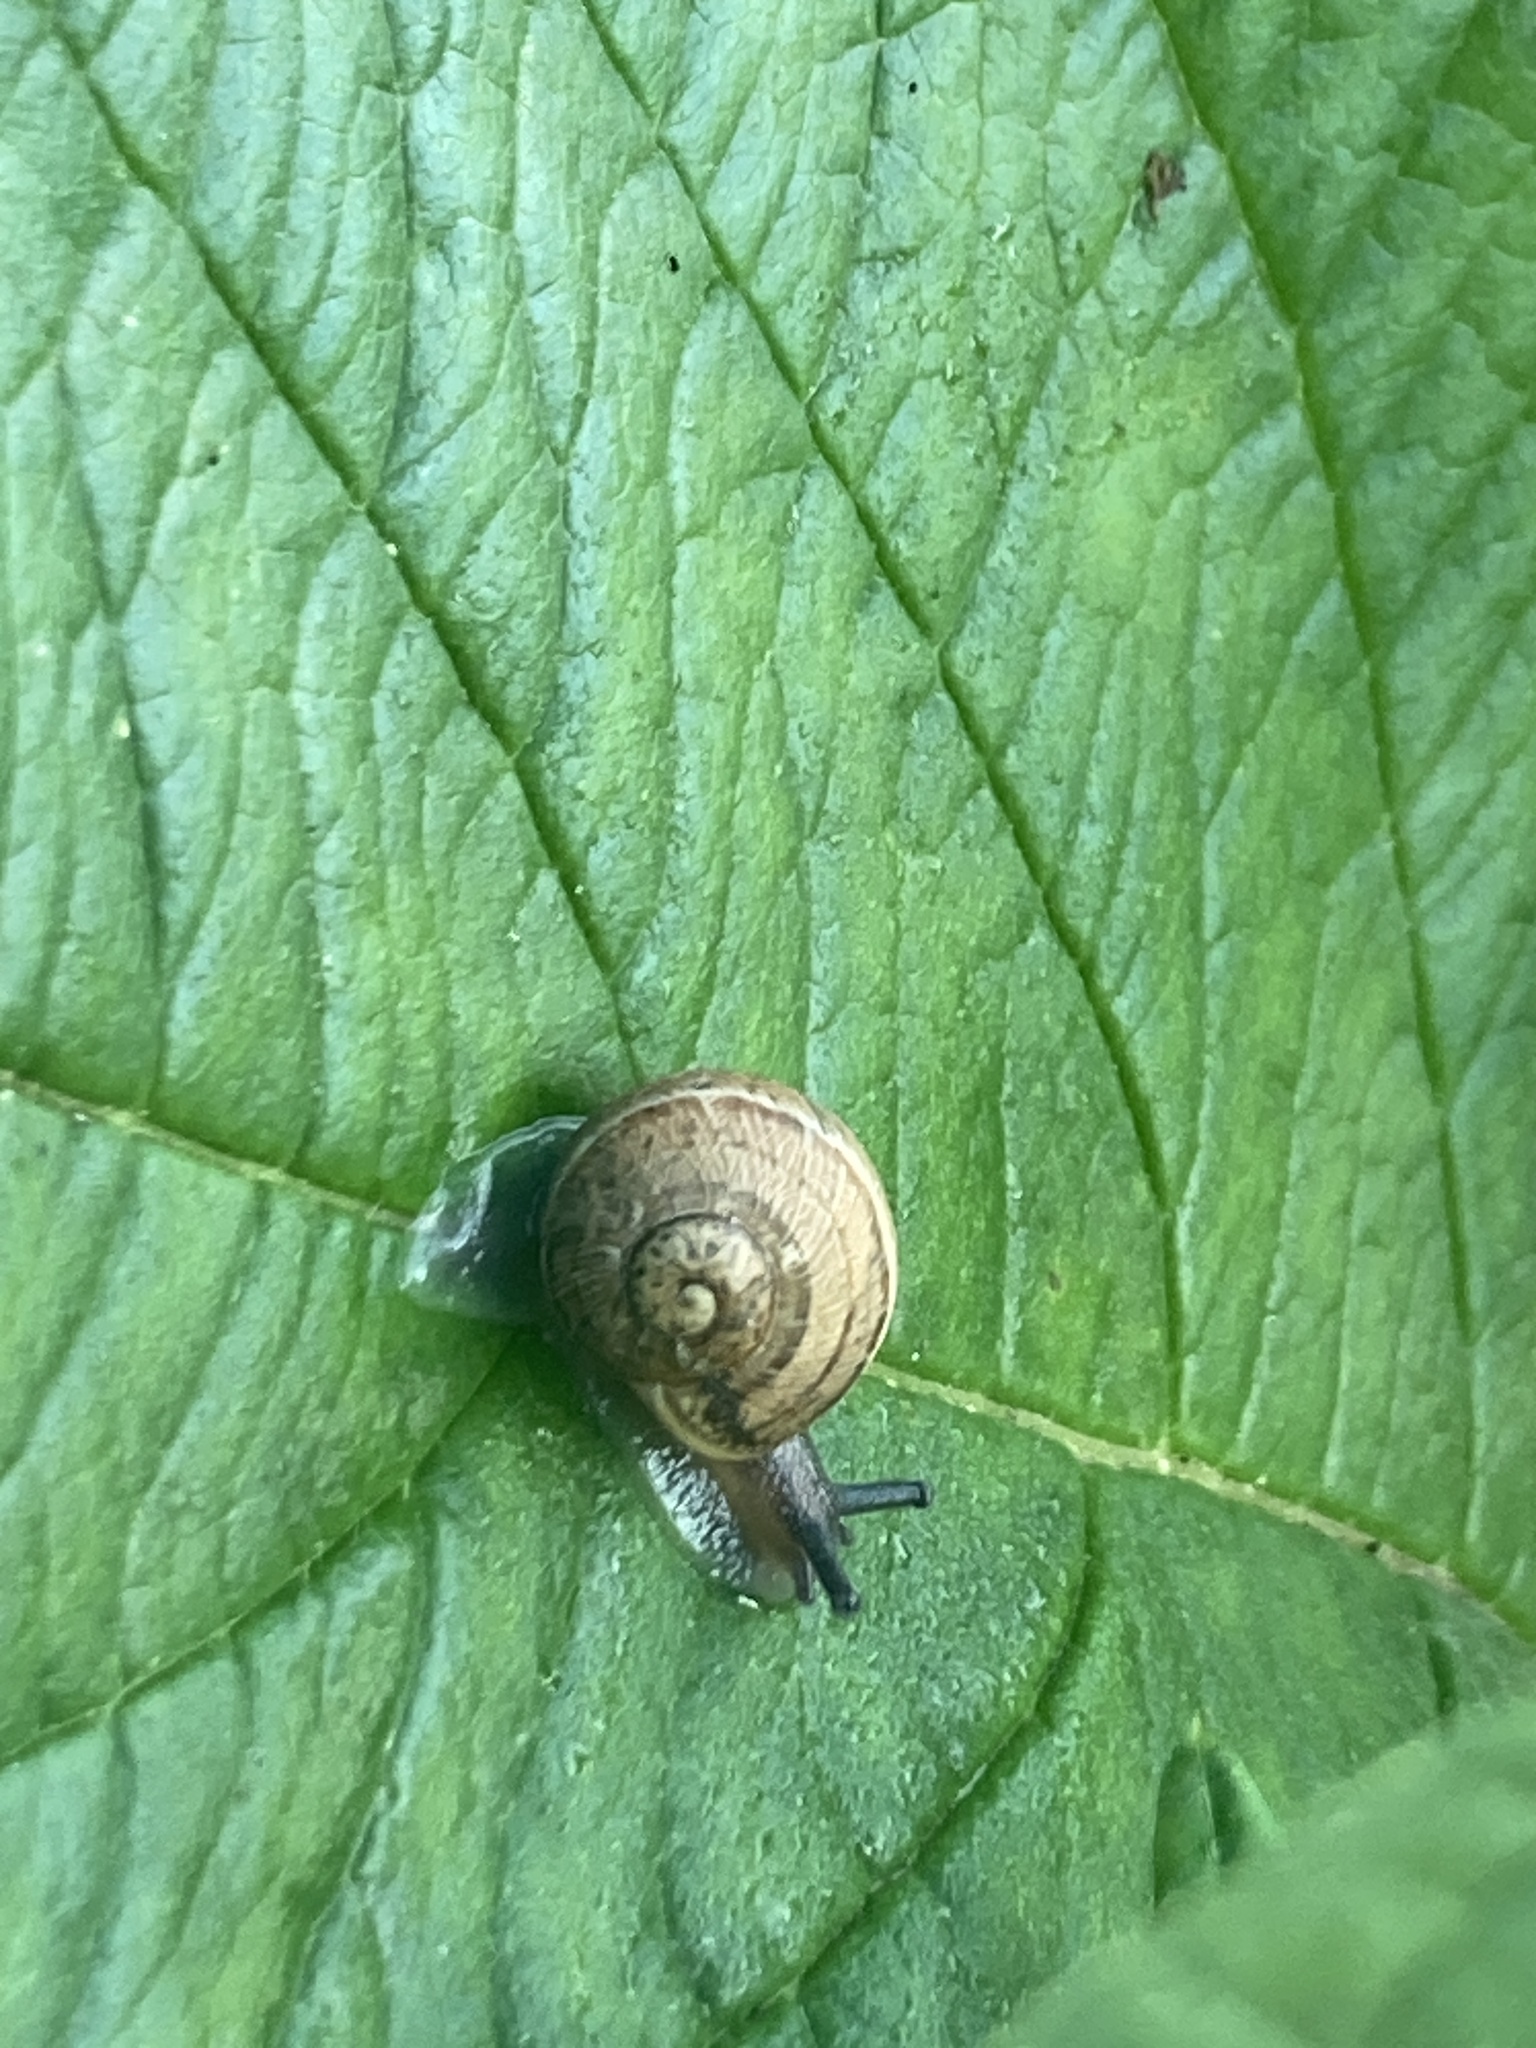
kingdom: Animalia
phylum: Mollusca
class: Gastropoda
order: Stylommatophora
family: Helicidae
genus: Cornu
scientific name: Cornu aspersum
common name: Brown garden snail
